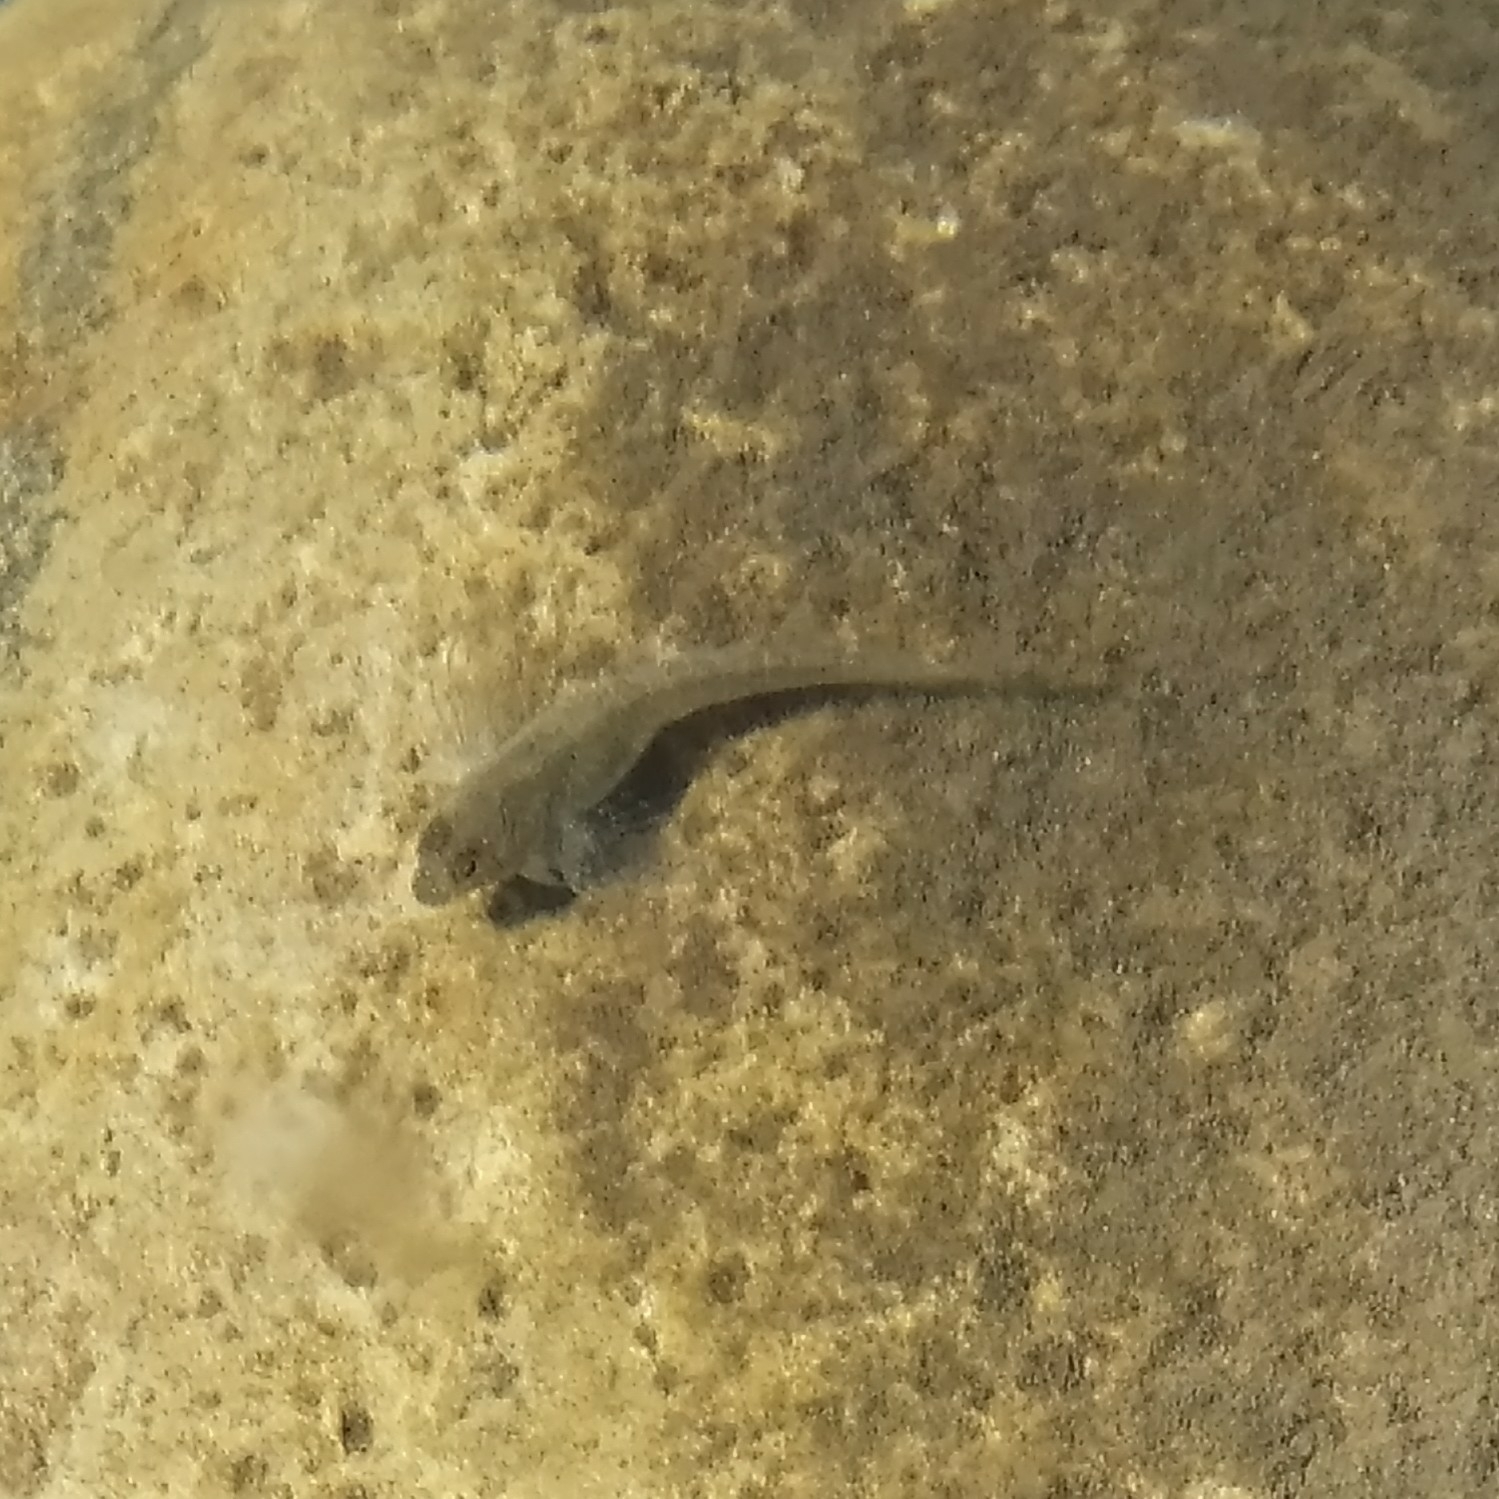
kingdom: Animalia
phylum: Chordata
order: Perciformes
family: Blenniidae
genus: Aidablennius
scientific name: Aidablennius sphynx
